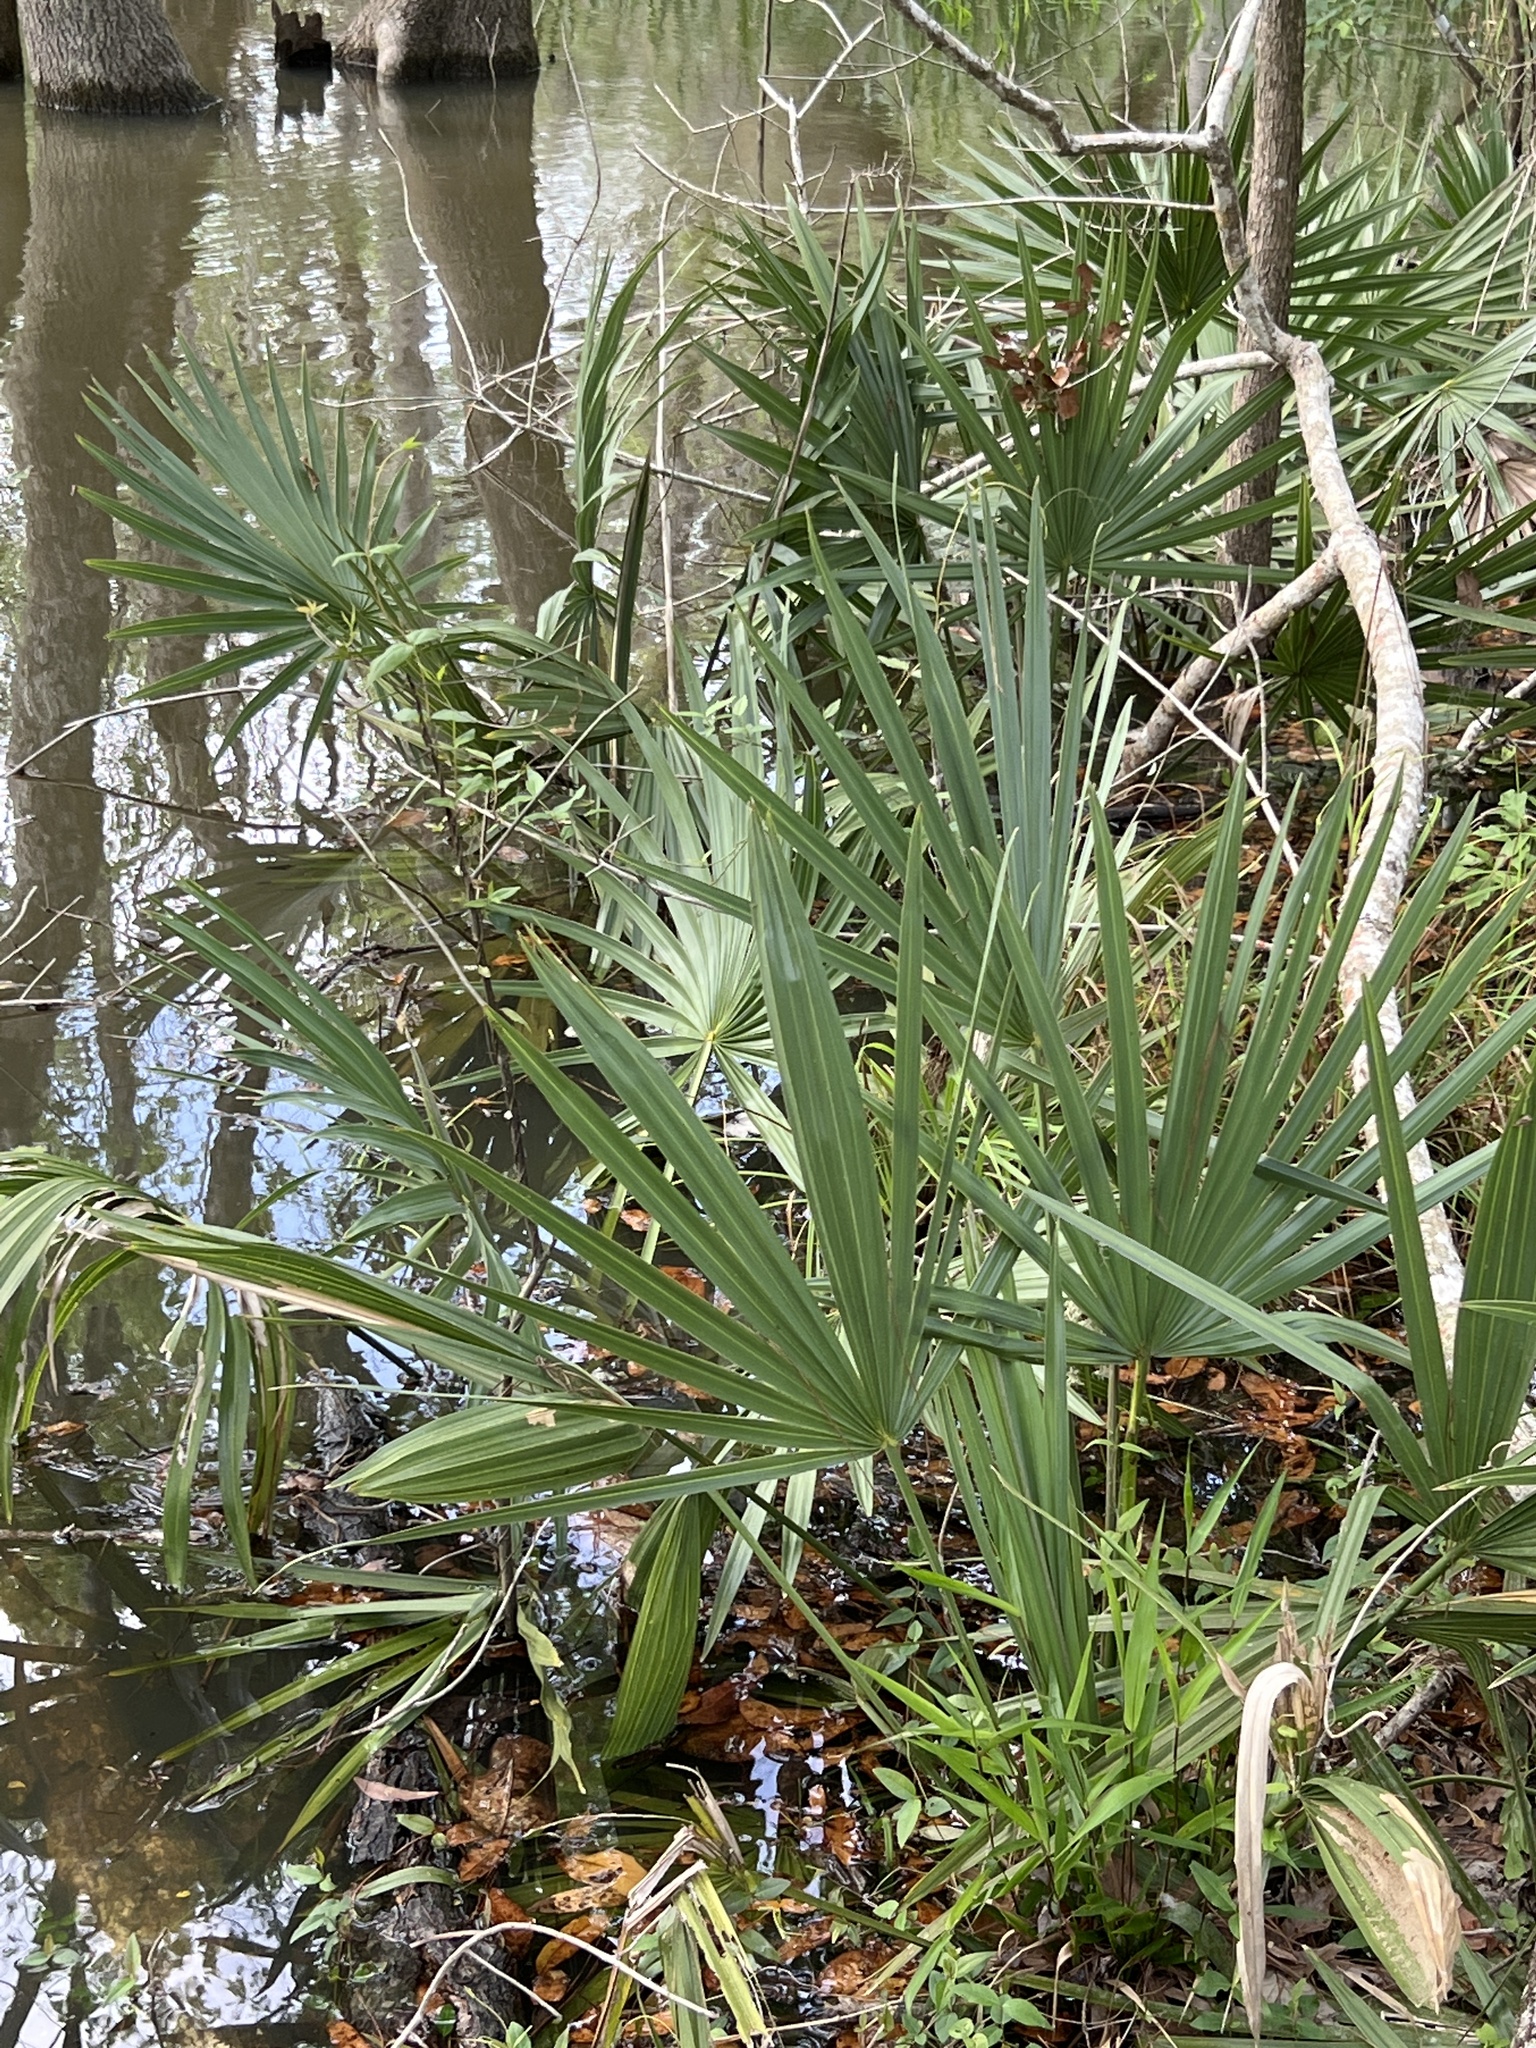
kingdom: Plantae
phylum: Tracheophyta
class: Liliopsida
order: Arecales
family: Arecaceae
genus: Sabal
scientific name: Sabal minor
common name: Dwarf palmetto
